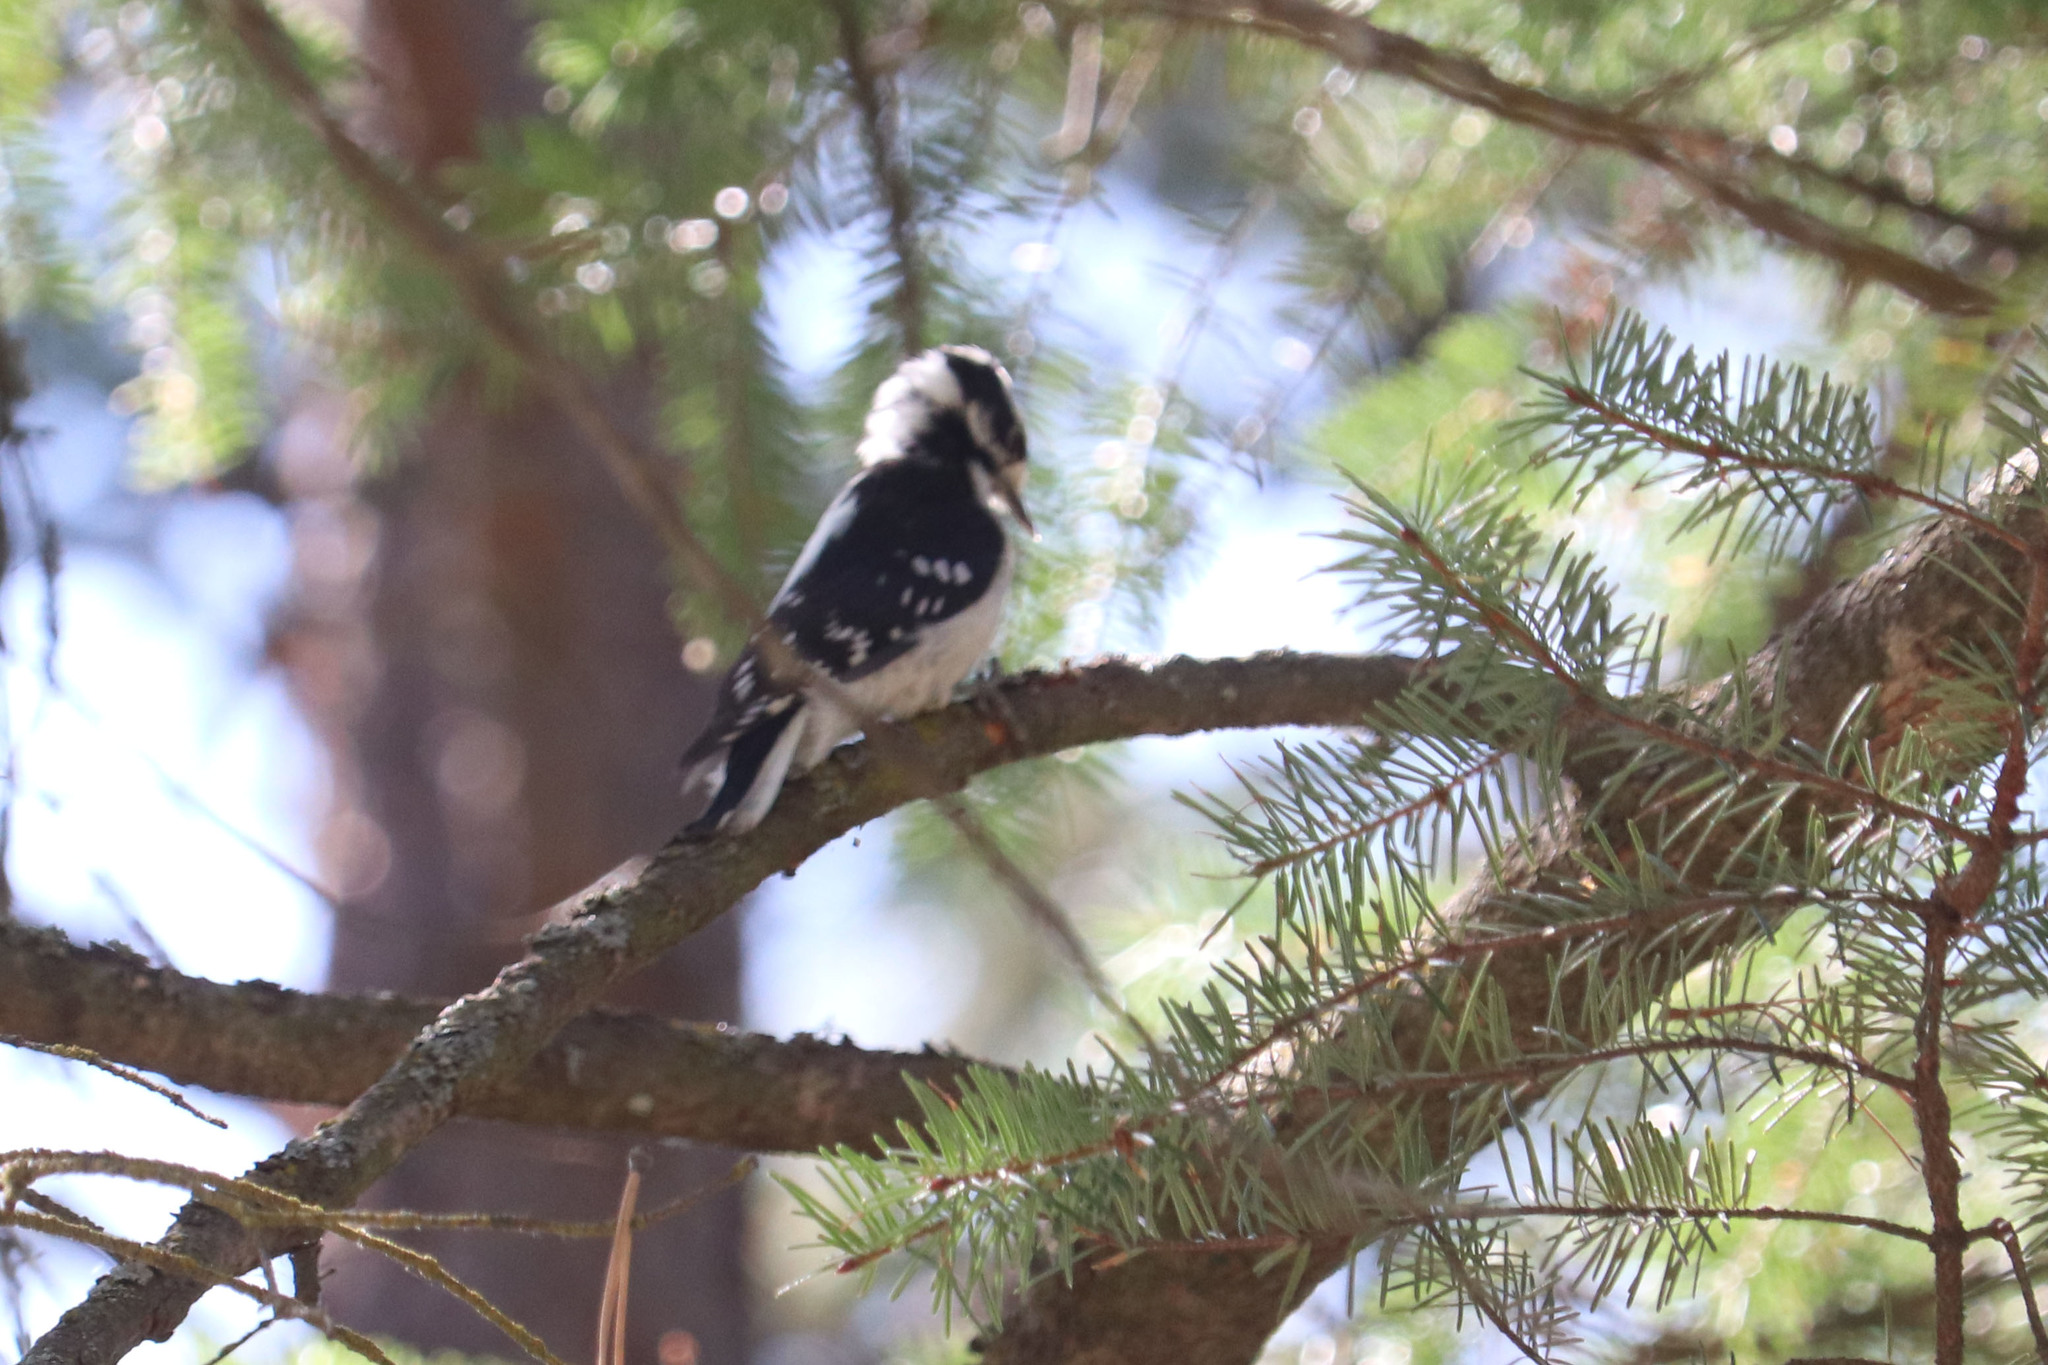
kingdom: Animalia
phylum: Chordata
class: Aves
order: Piciformes
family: Picidae
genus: Dryobates
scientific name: Dryobates pubescens
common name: Downy woodpecker
